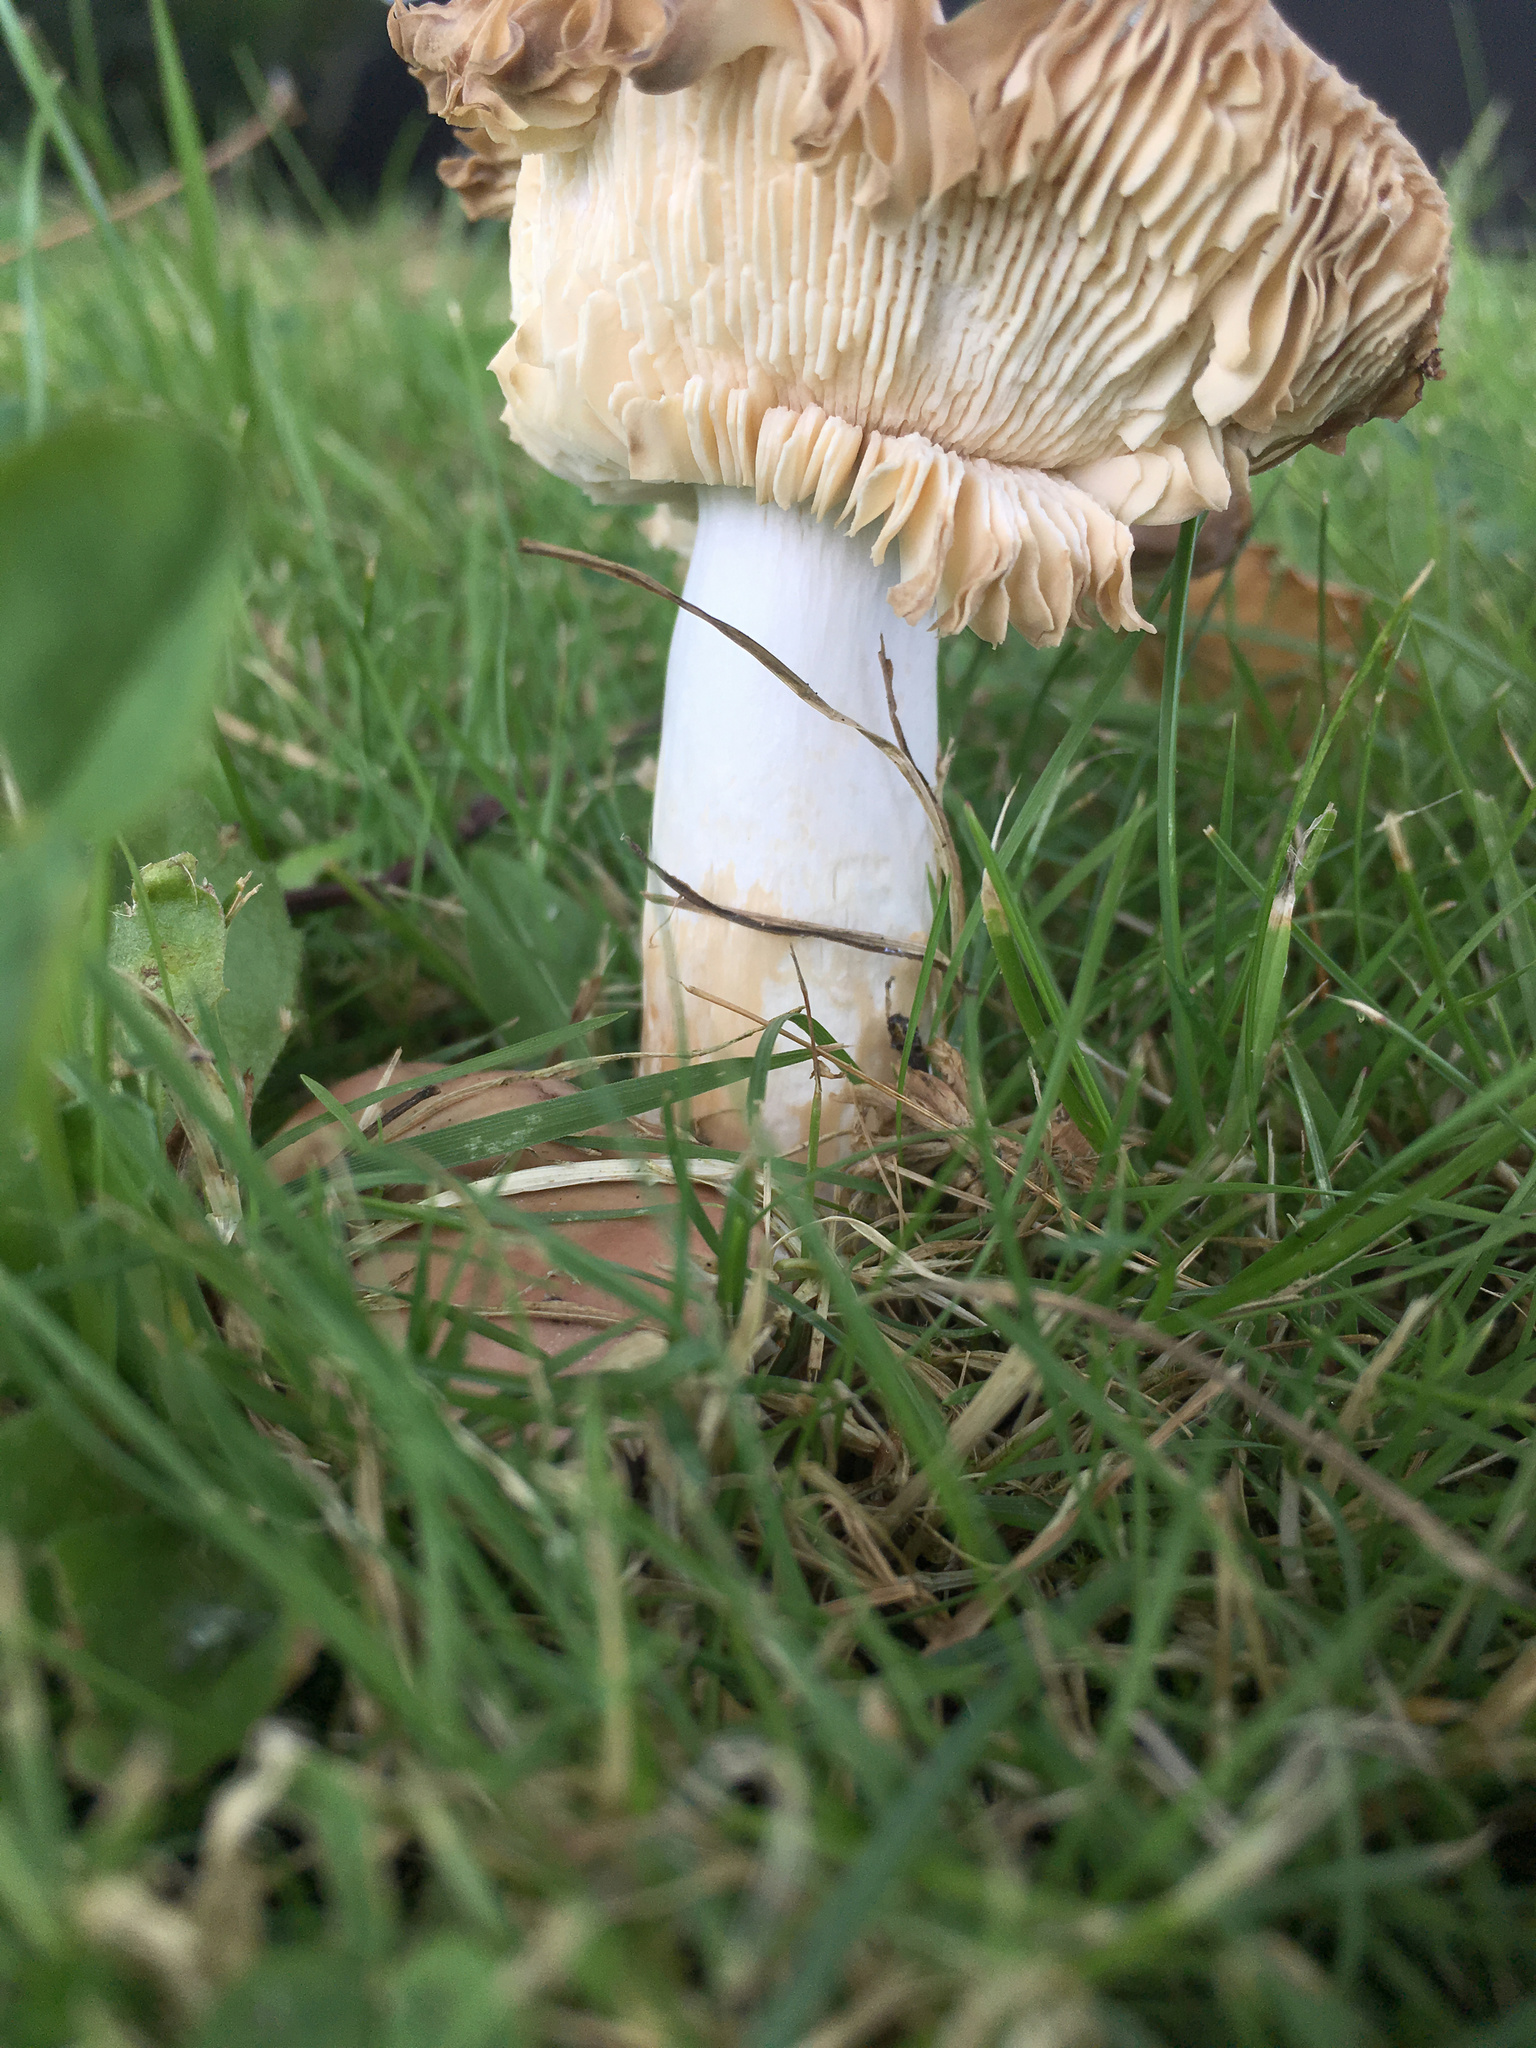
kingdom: Fungi
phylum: Basidiomycota
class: Agaricomycetes
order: Russulales
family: Russulaceae
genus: Russula
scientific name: Russula nitida
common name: Purple swamp brittlegill
